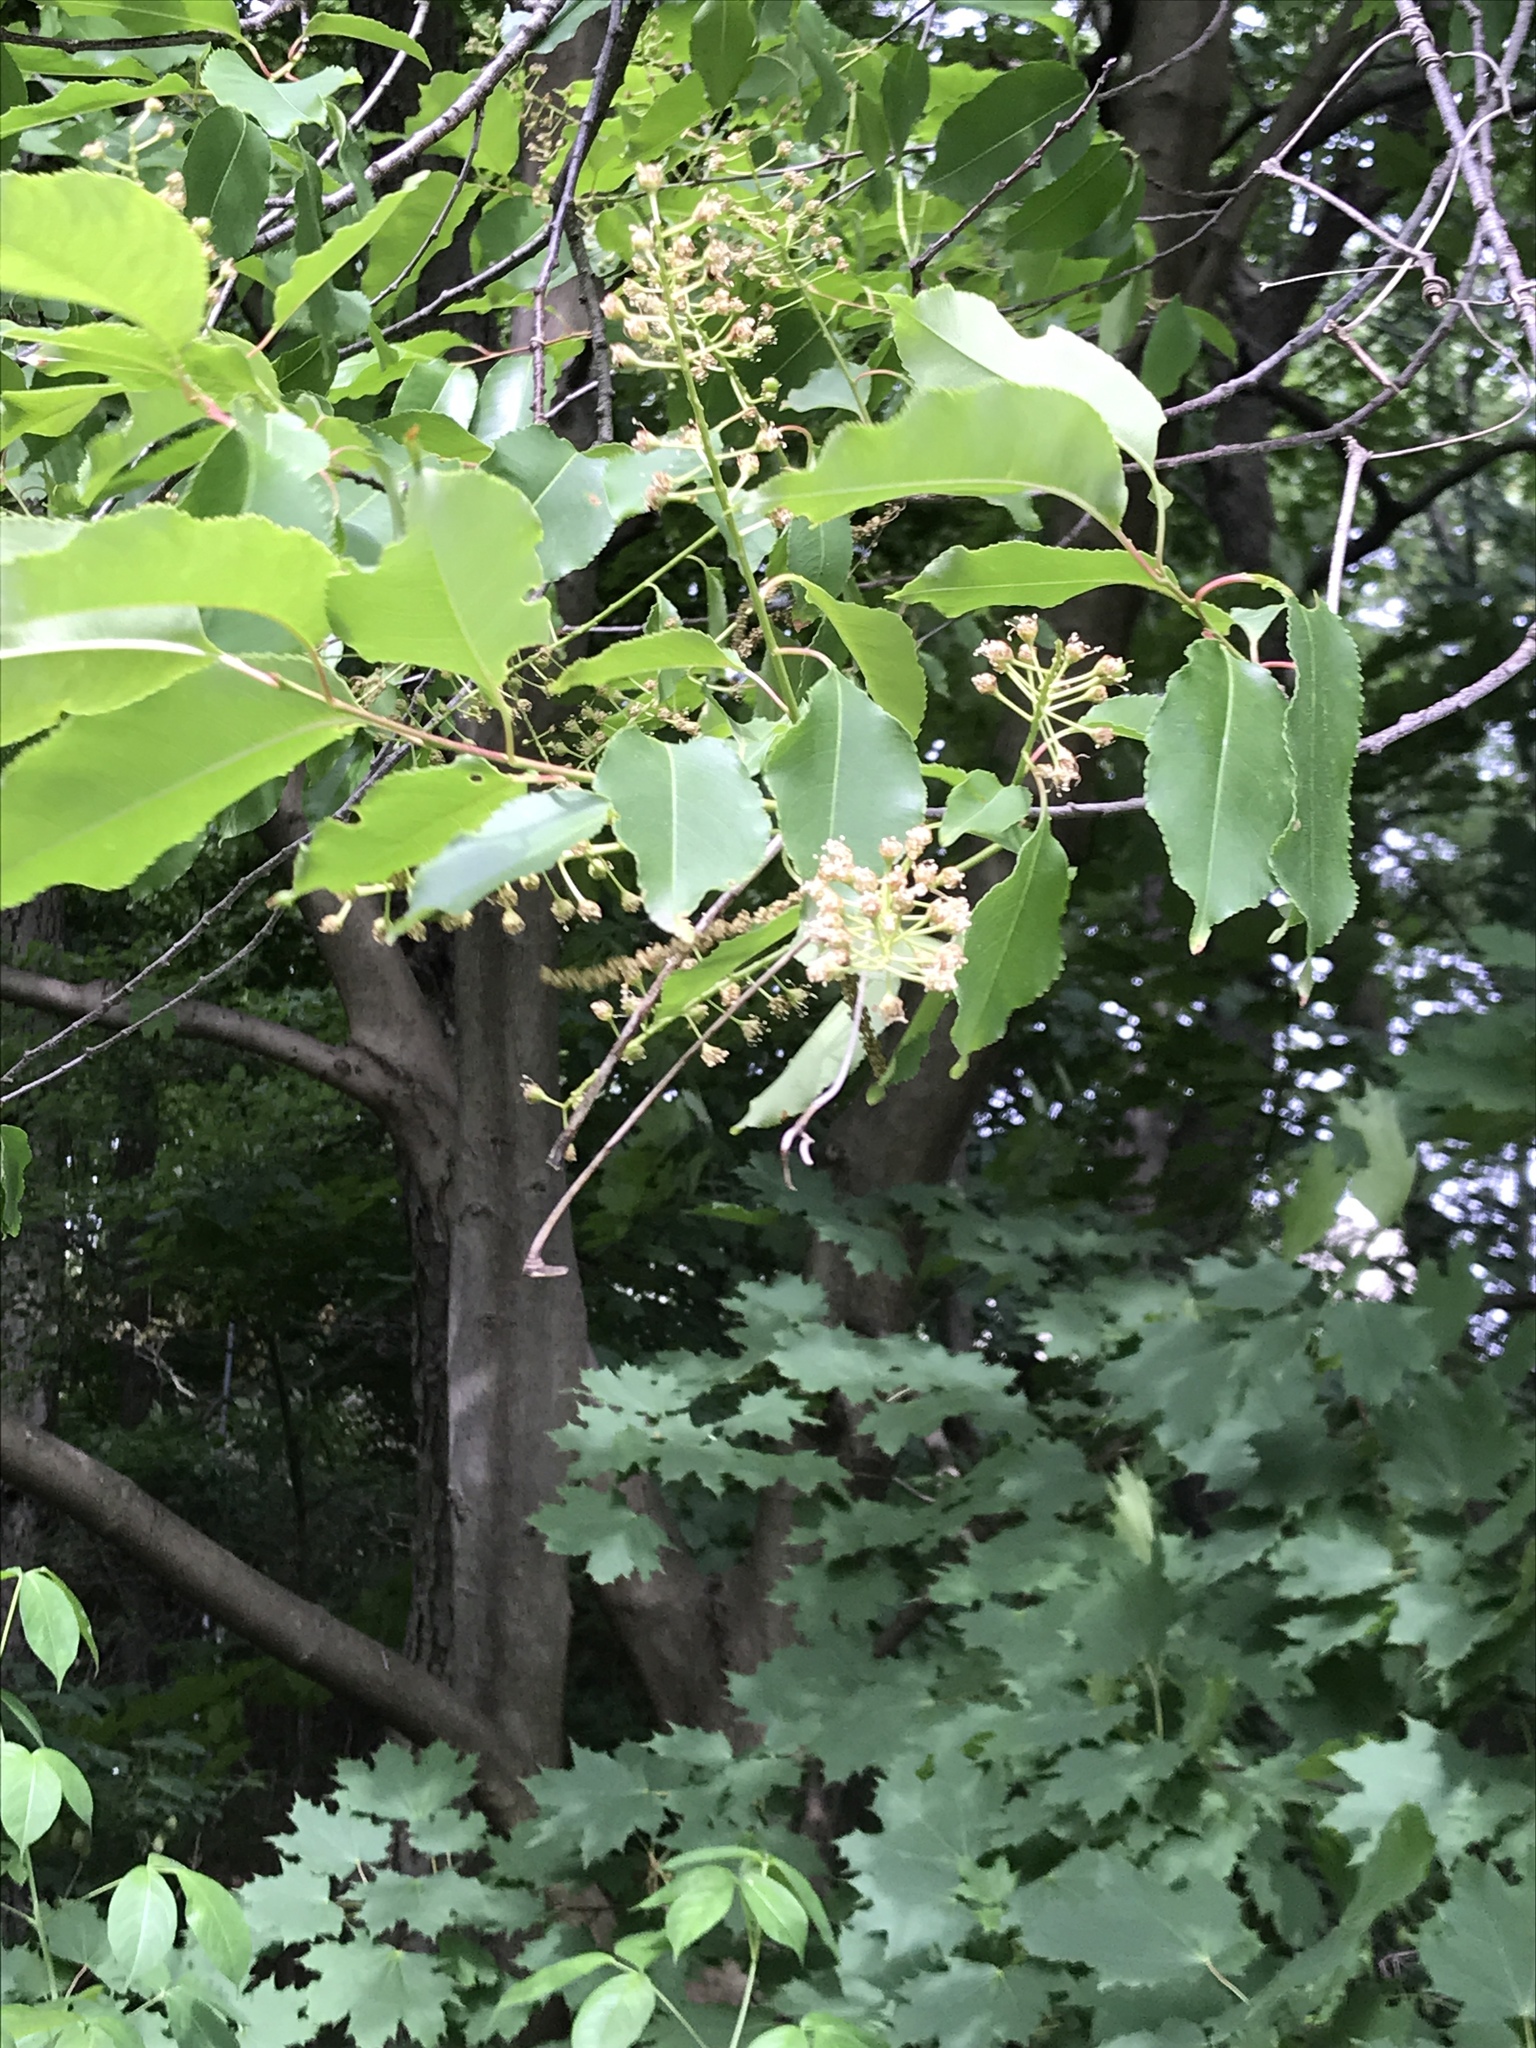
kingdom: Plantae
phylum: Tracheophyta
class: Magnoliopsida
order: Rosales
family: Rosaceae
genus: Prunus
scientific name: Prunus serotina
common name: Black cherry
